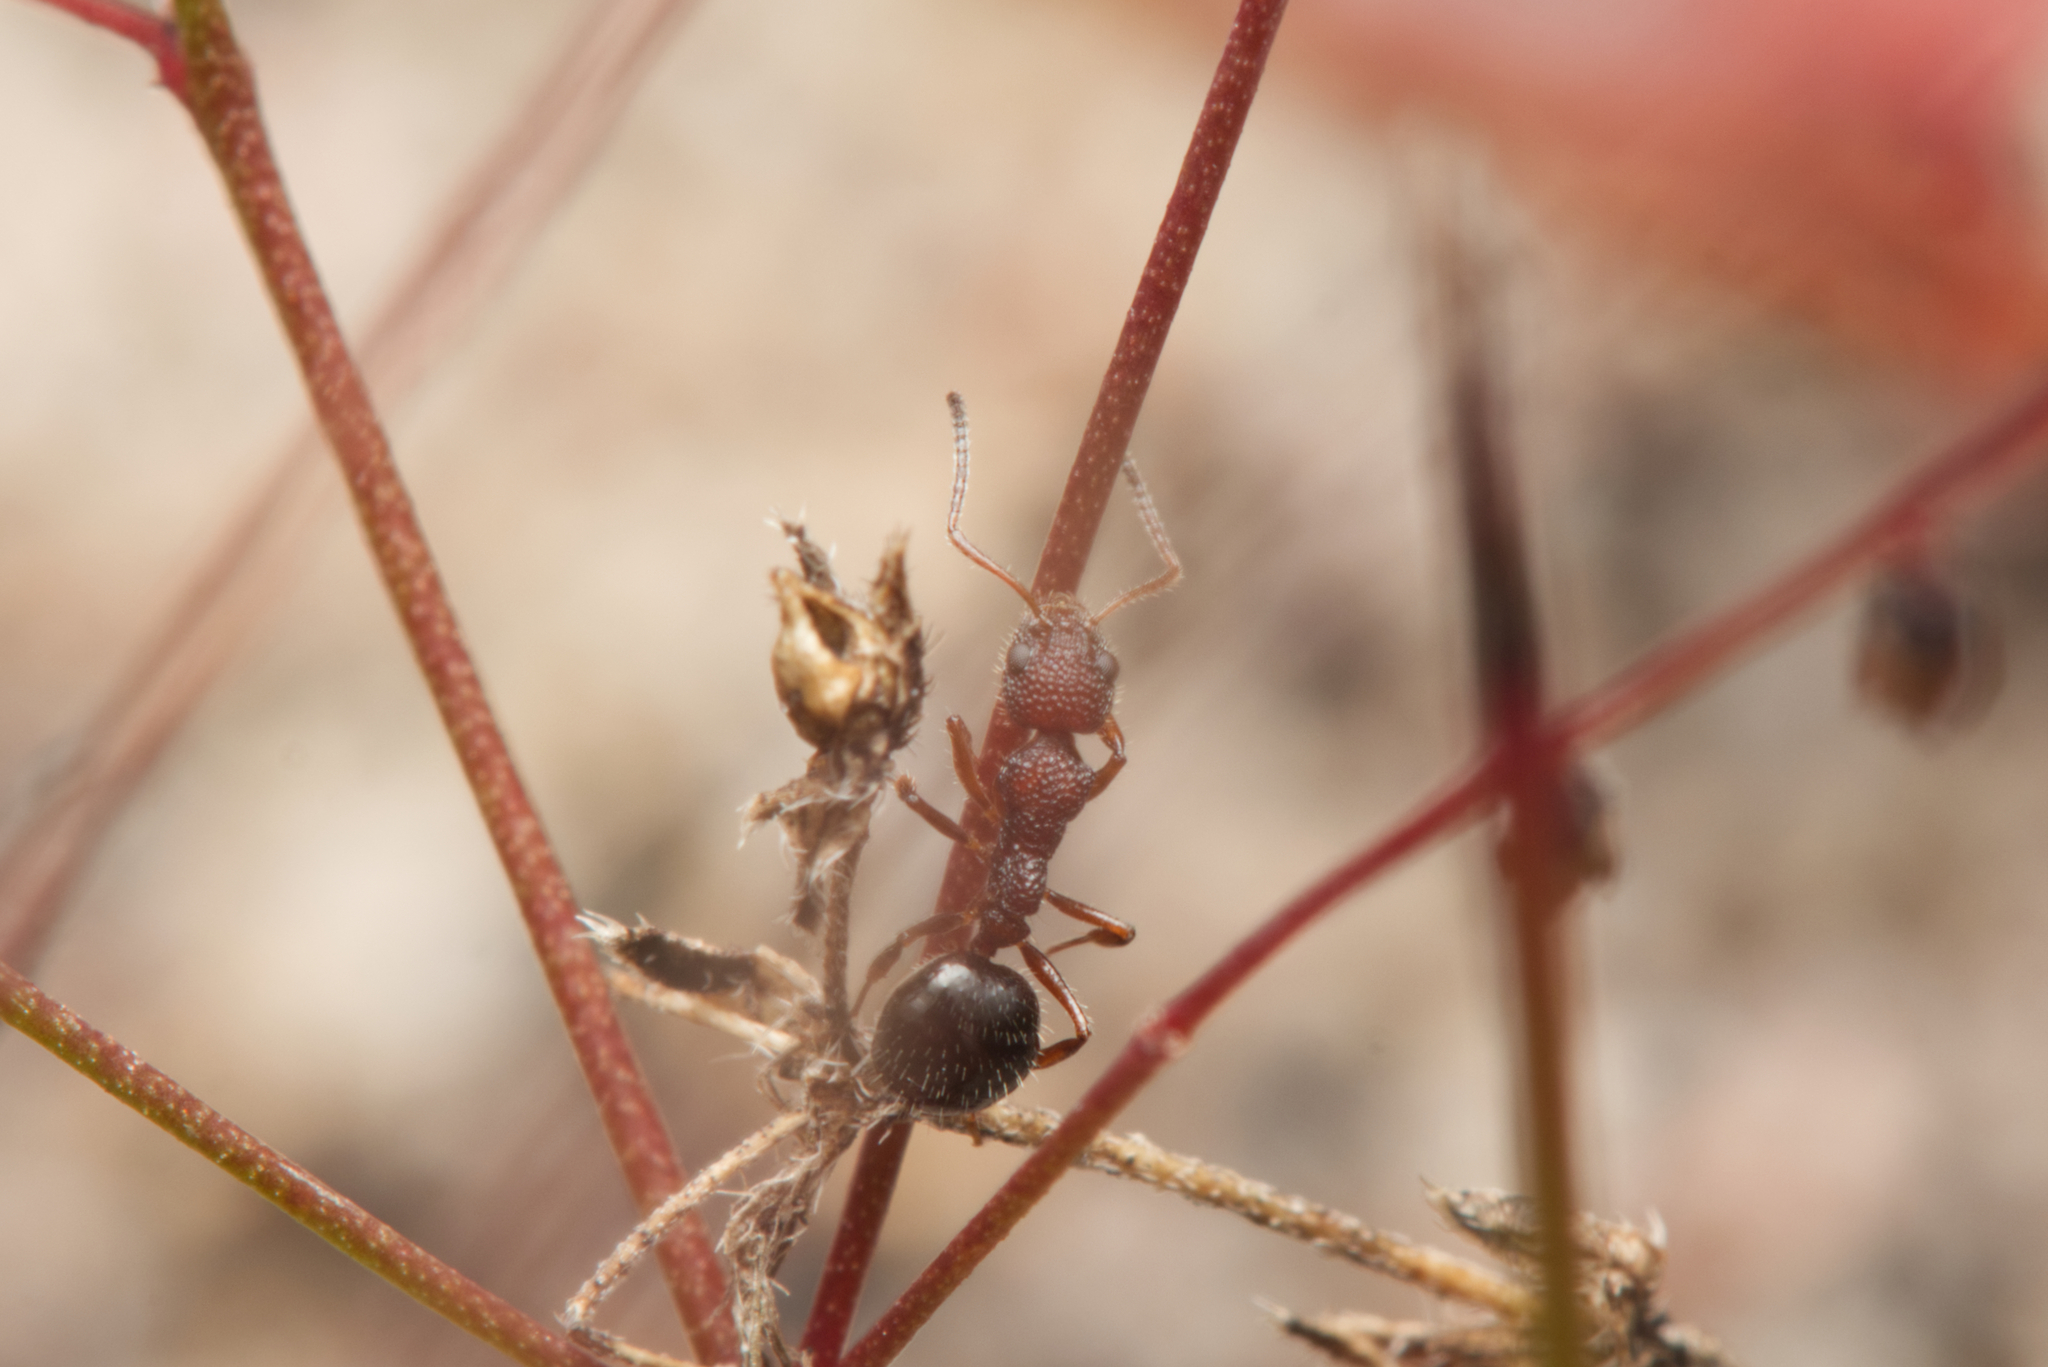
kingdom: Animalia
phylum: Arthropoda
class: Insecta
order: Hymenoptera
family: Formicidae
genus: Dolichoderus
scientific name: Dolichoderus reflexus
